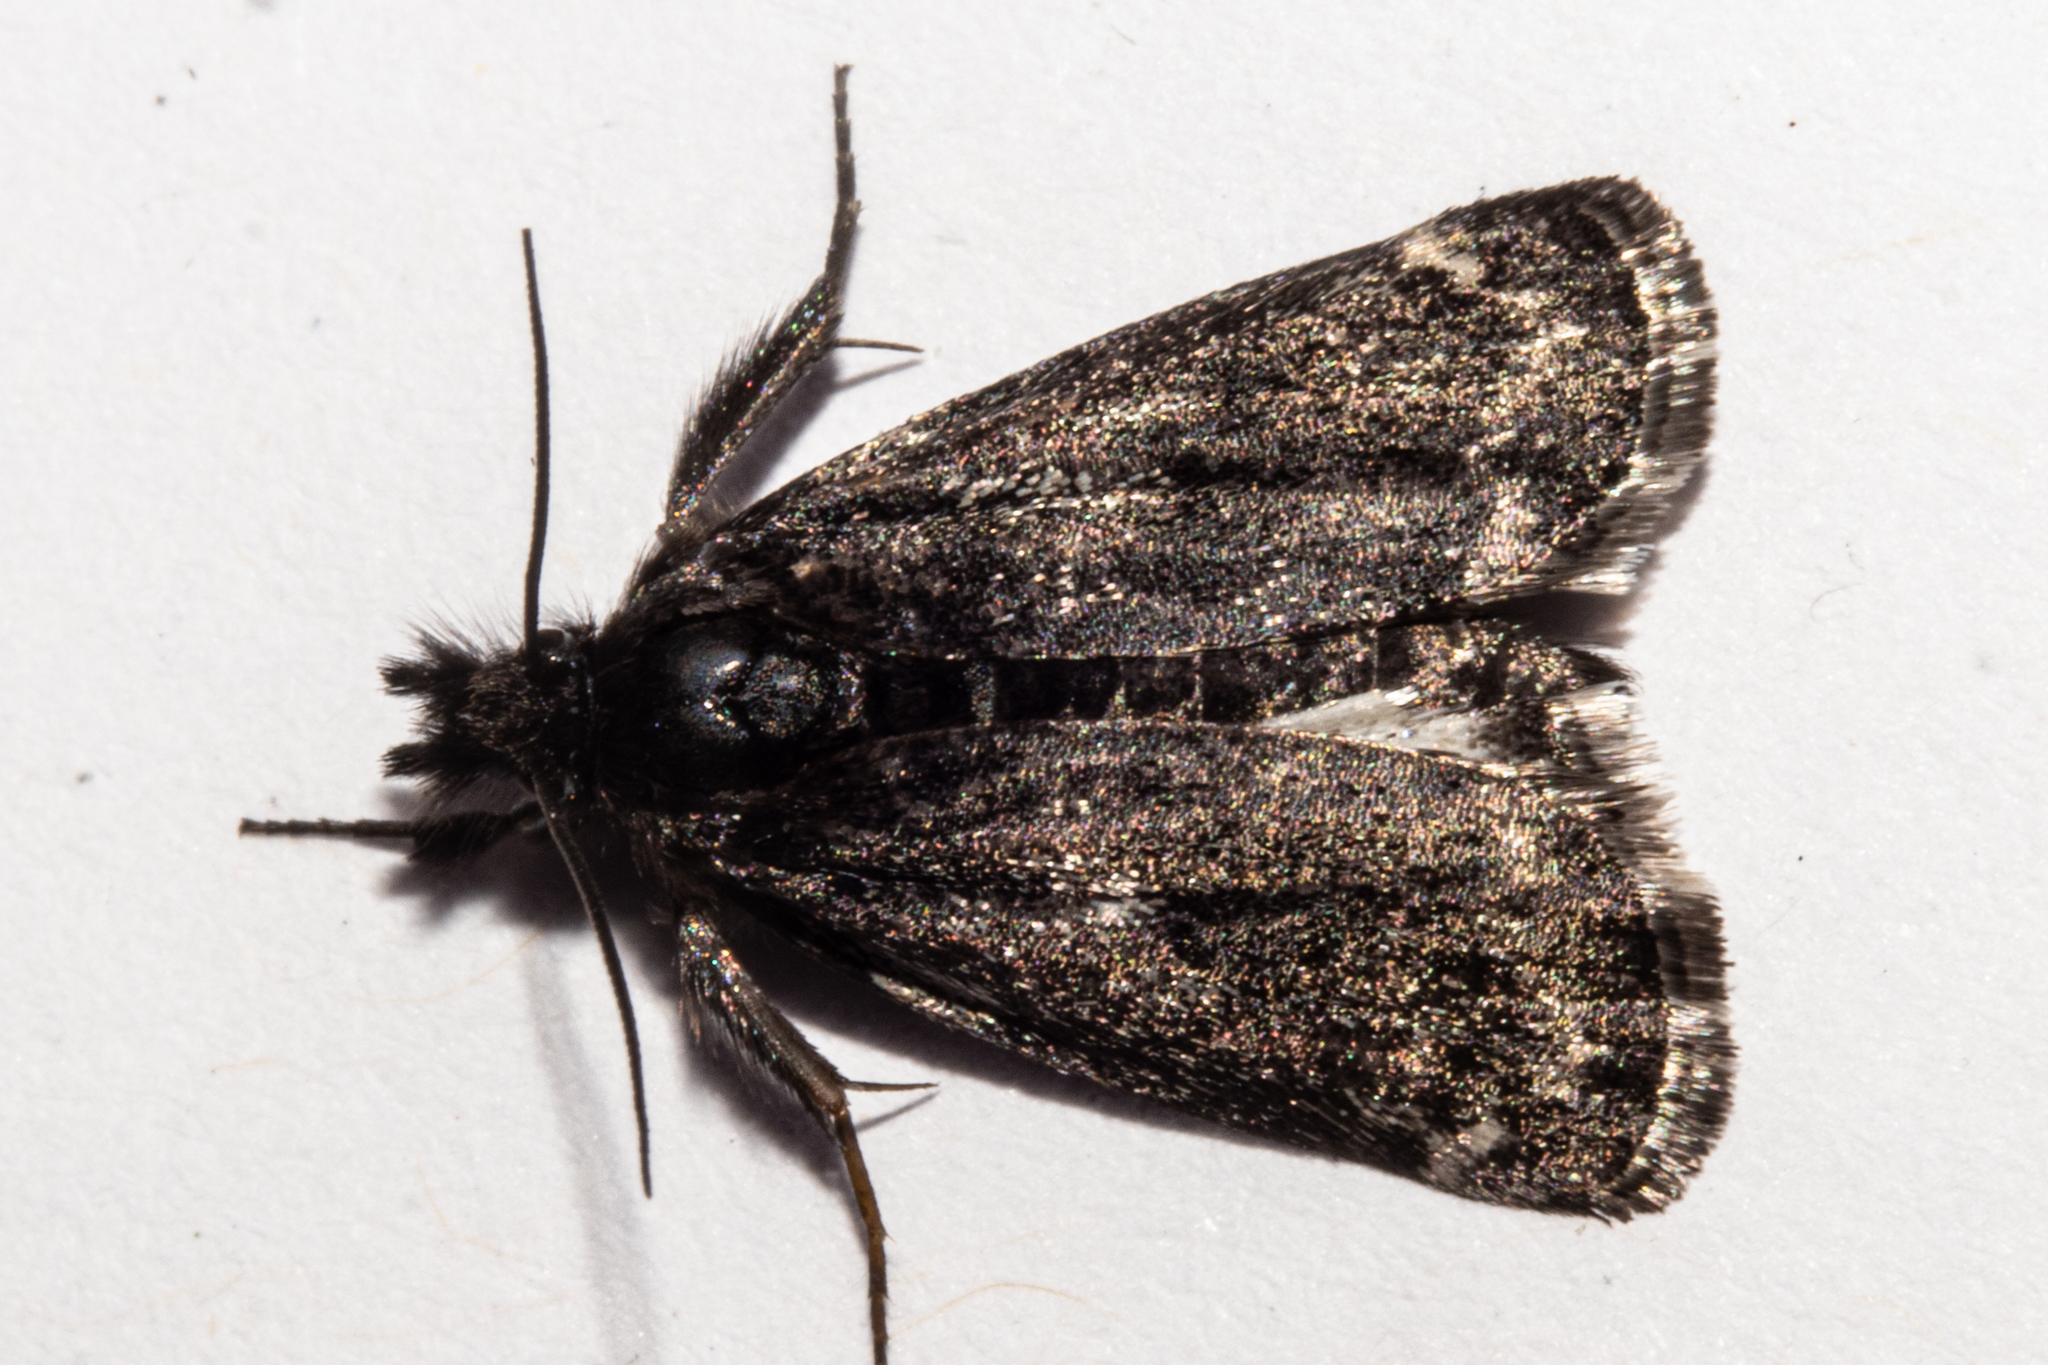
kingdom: Animalia
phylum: Arthropoda
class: Insecta
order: Lepidoptera
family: Crambidae
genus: Orocrambus
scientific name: Orocrambus clarkei
